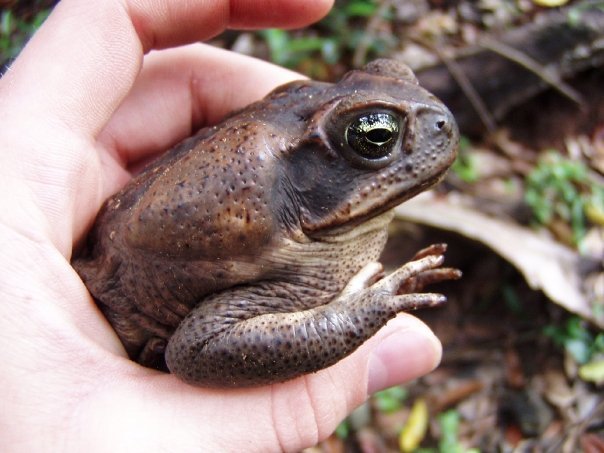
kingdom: Animalia
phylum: Chordata
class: Amphibia
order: Anura
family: Bufonidae
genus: Rhinella
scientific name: Rhinella horribilis
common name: Mesoamerican cane toad
